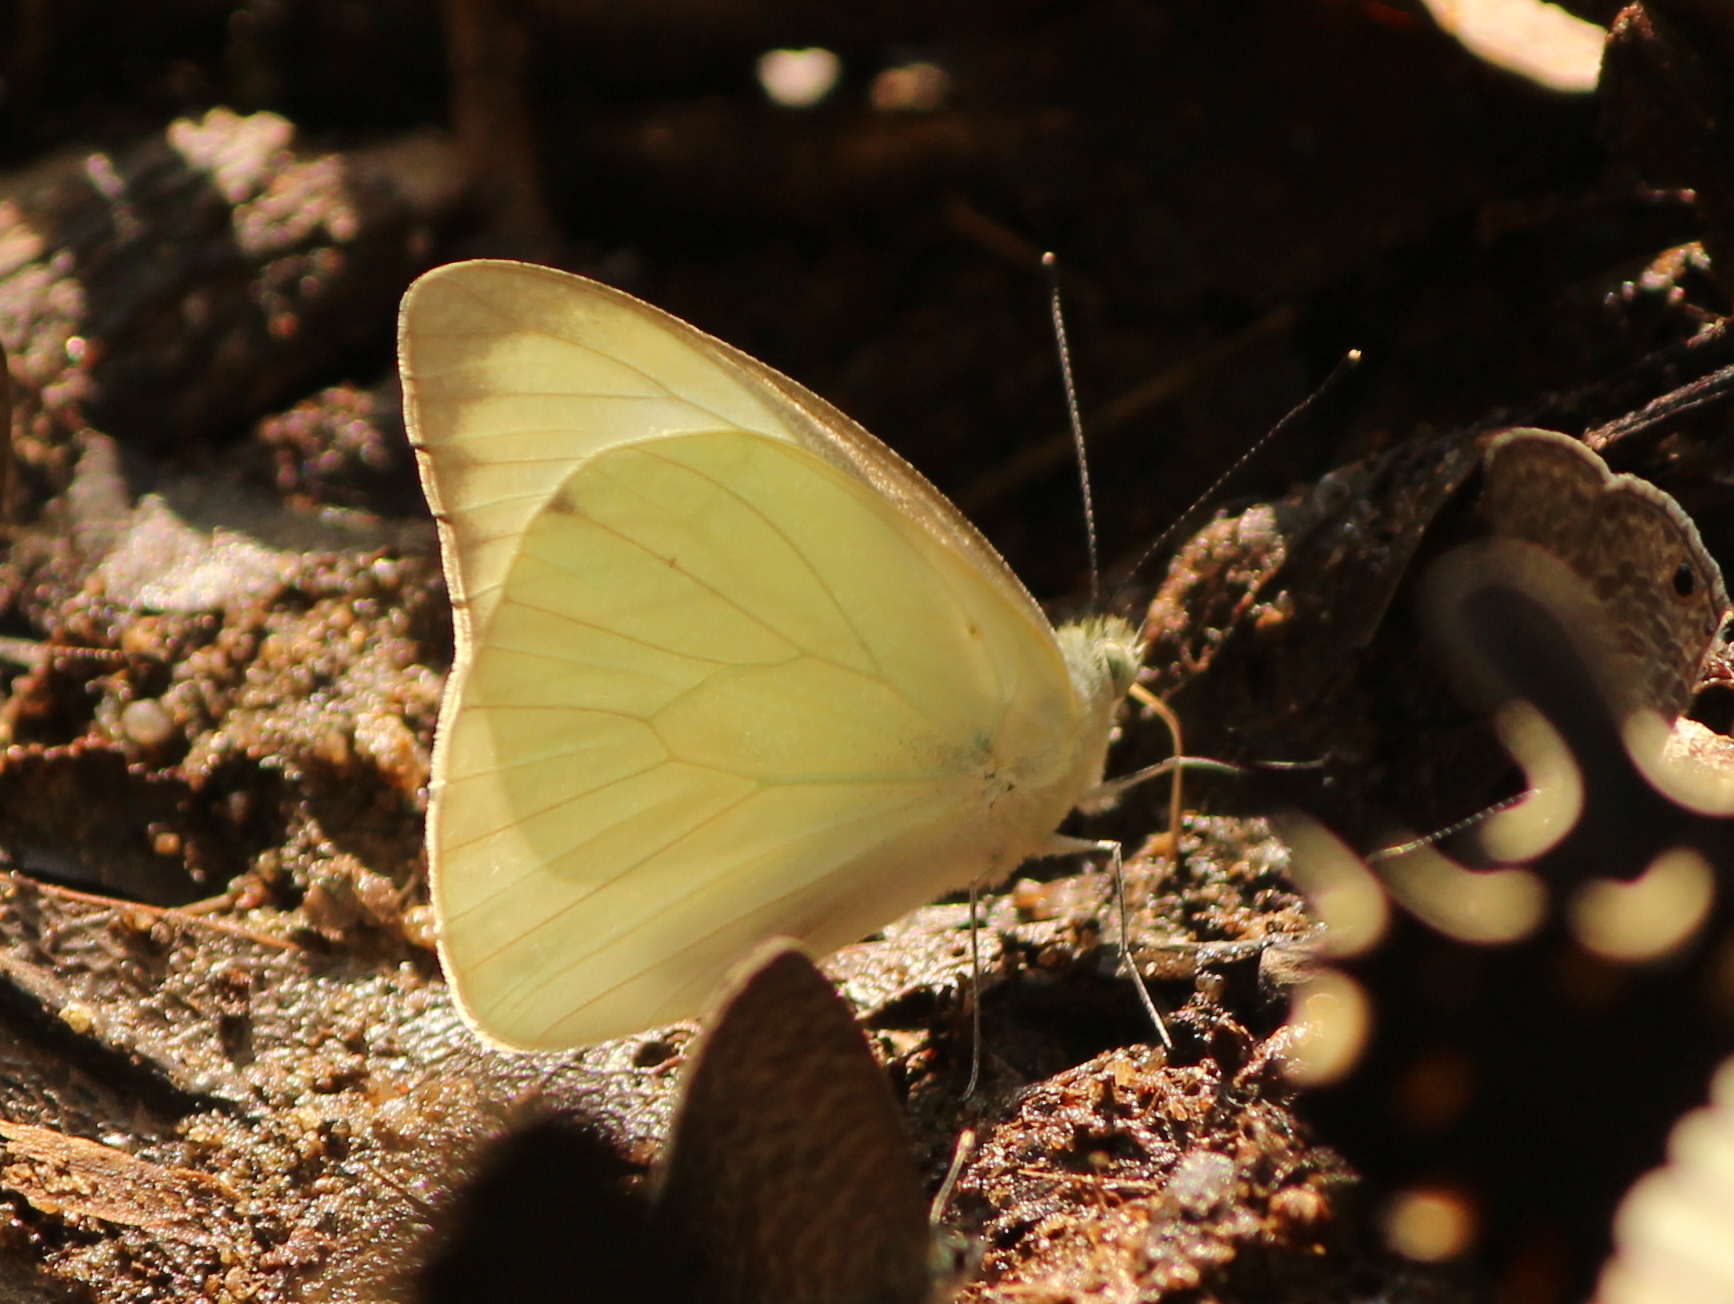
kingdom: Animalia
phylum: Arthropoda
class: Insecta
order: Lepidoptera
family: Pieridae
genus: Appias
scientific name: Appias albina
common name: Common albatross
